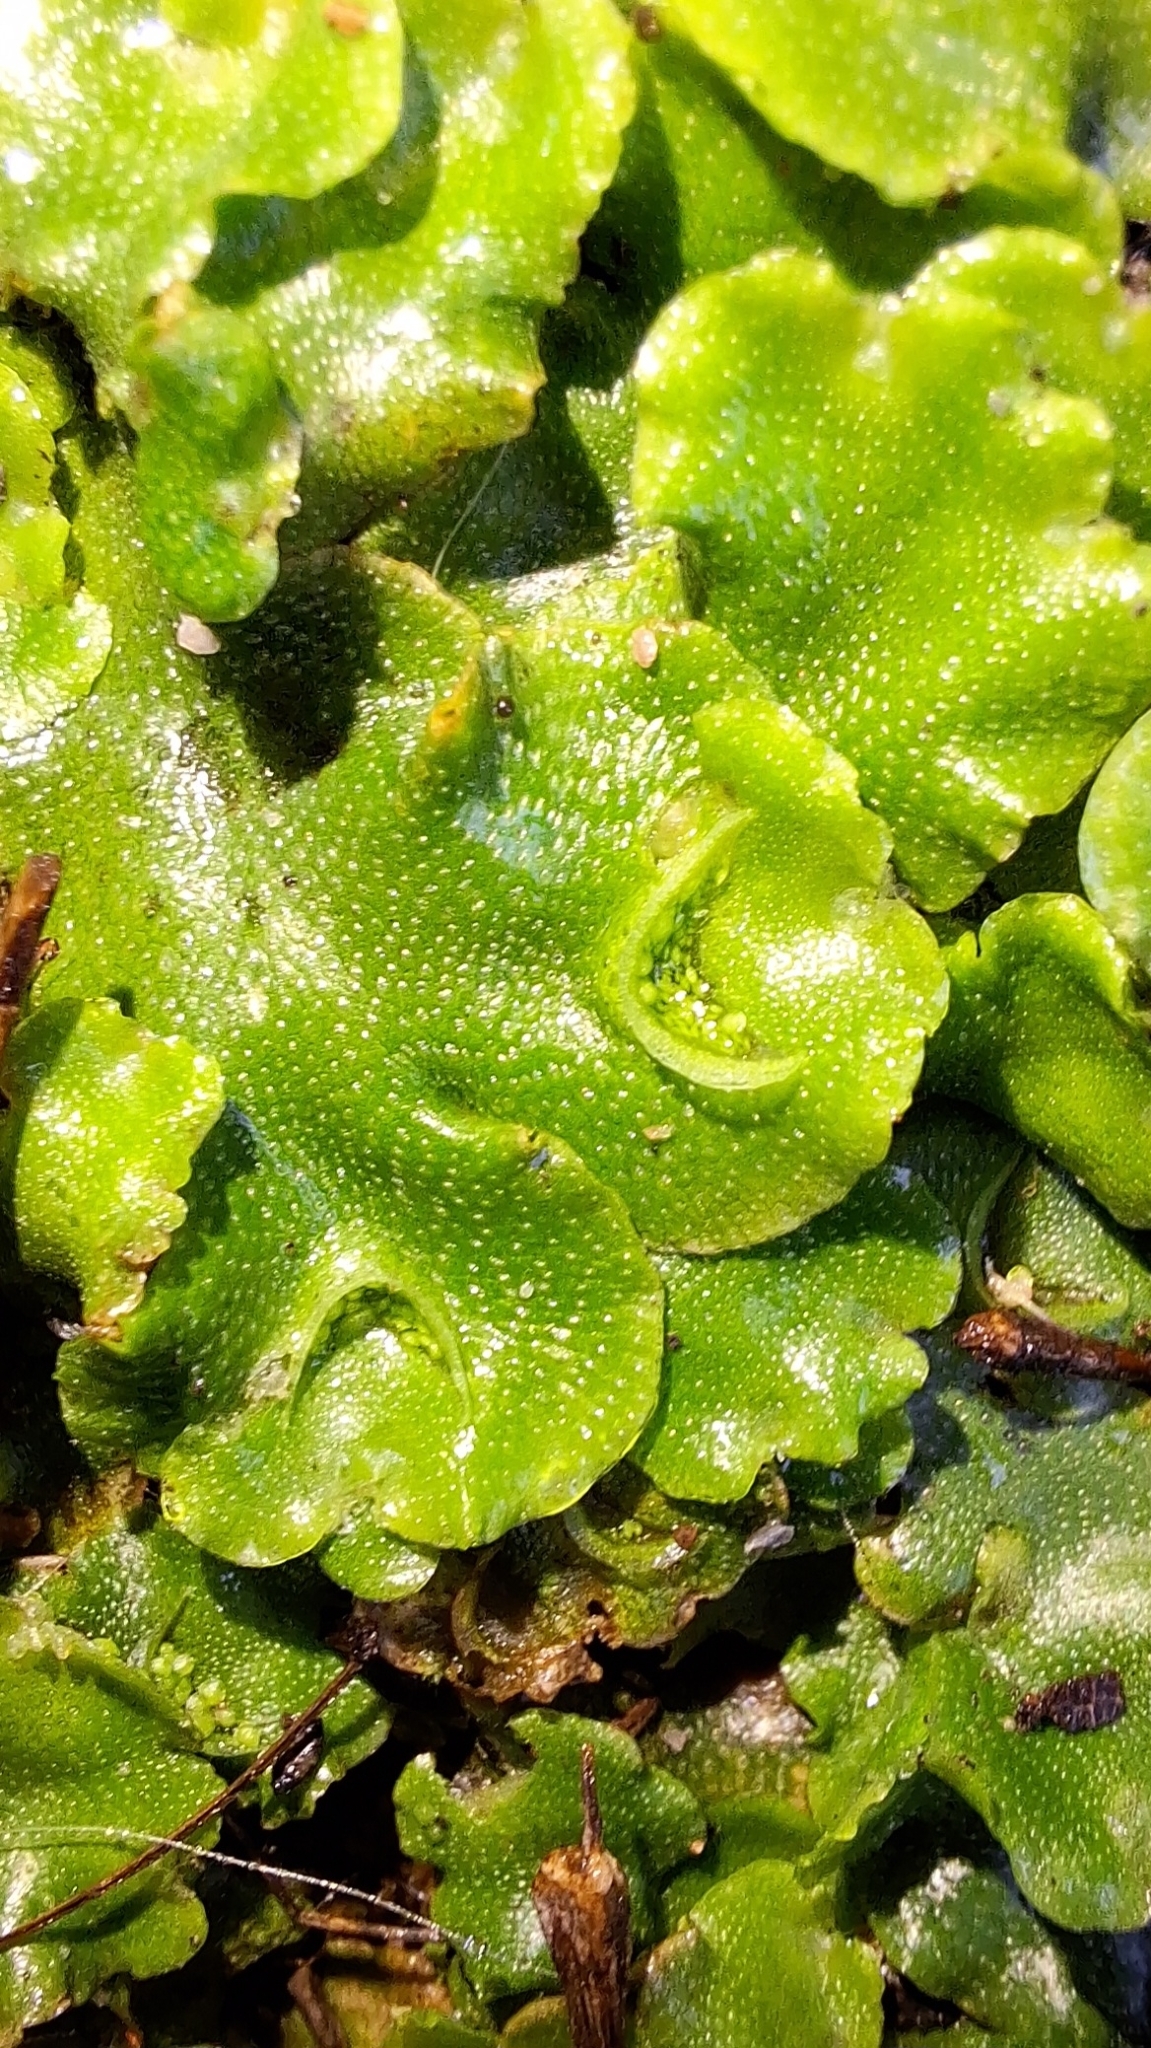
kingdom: Plantae
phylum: Marchantiophyta
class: Marchantiopsida
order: Lunulariales
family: Lunulariaceae
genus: Lunularia
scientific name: Lunularia cruciata
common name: Crescent-cup liverwort
